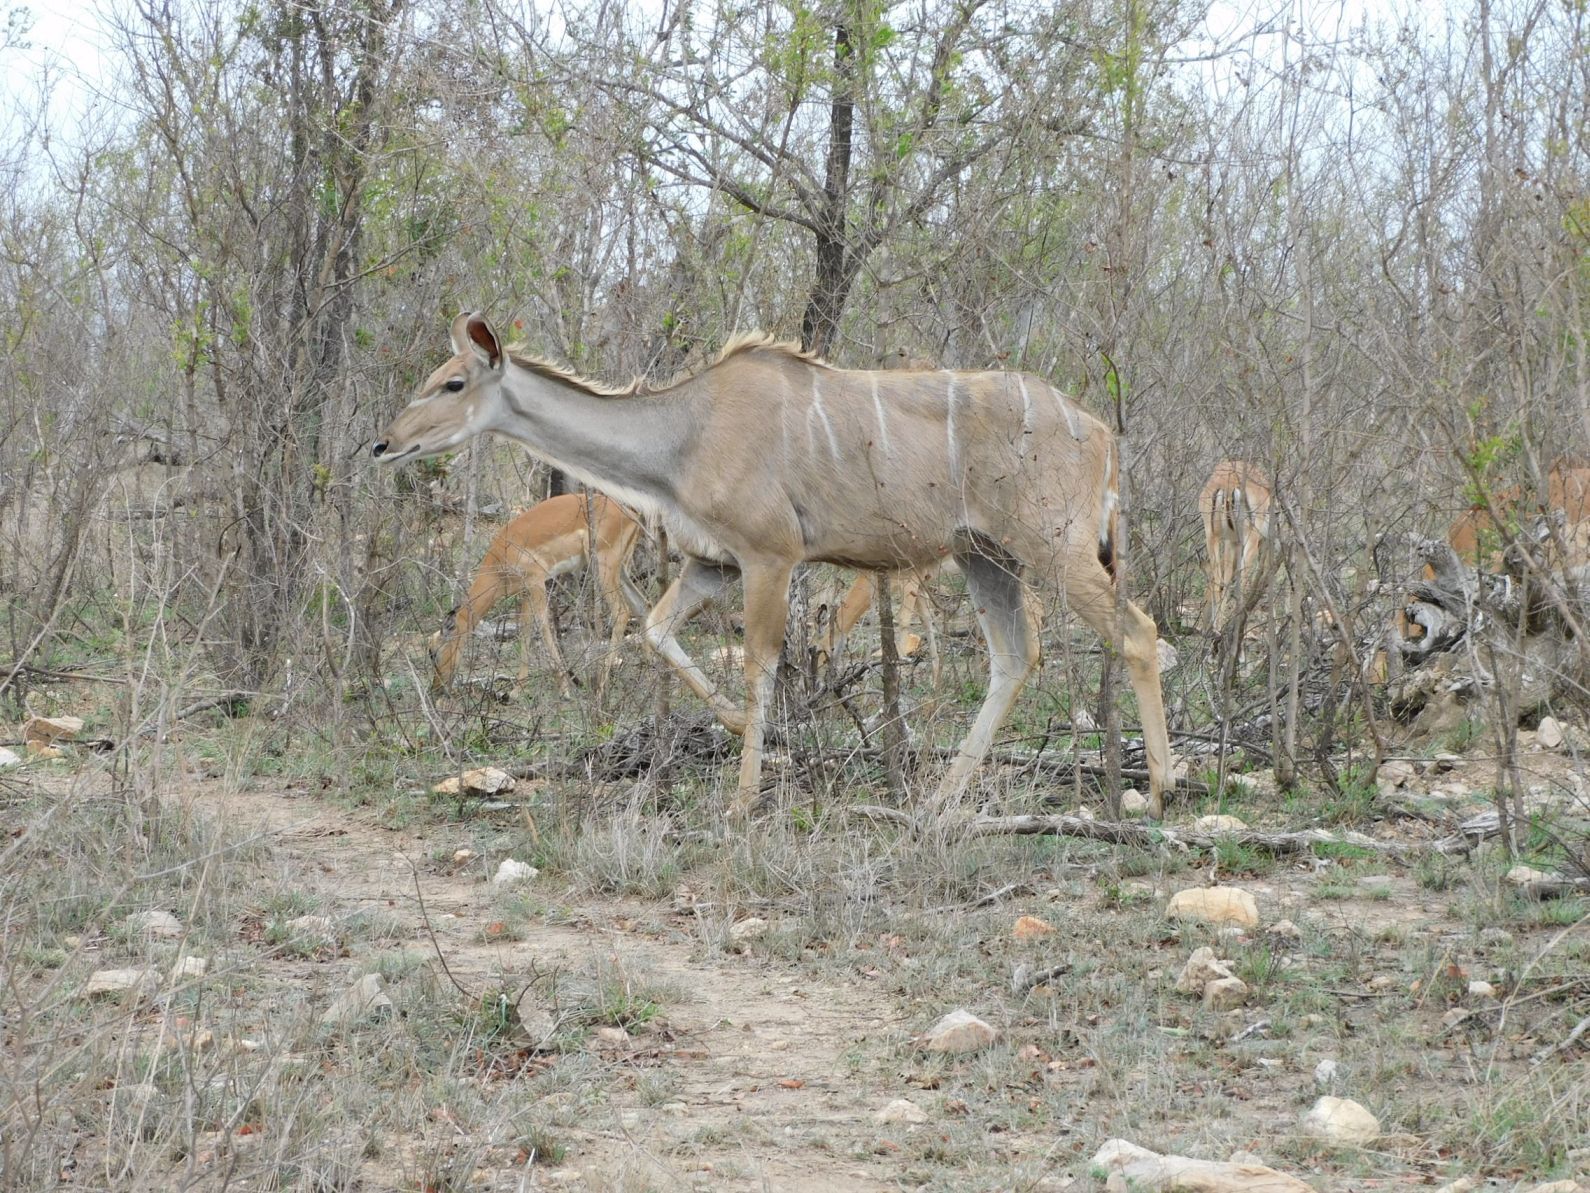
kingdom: Animalia
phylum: Chordata
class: Mammalia
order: Artiodactyla
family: Bovidae
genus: Tragelaphus
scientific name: Tragelaphus strepsiceros
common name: Greater kudu
